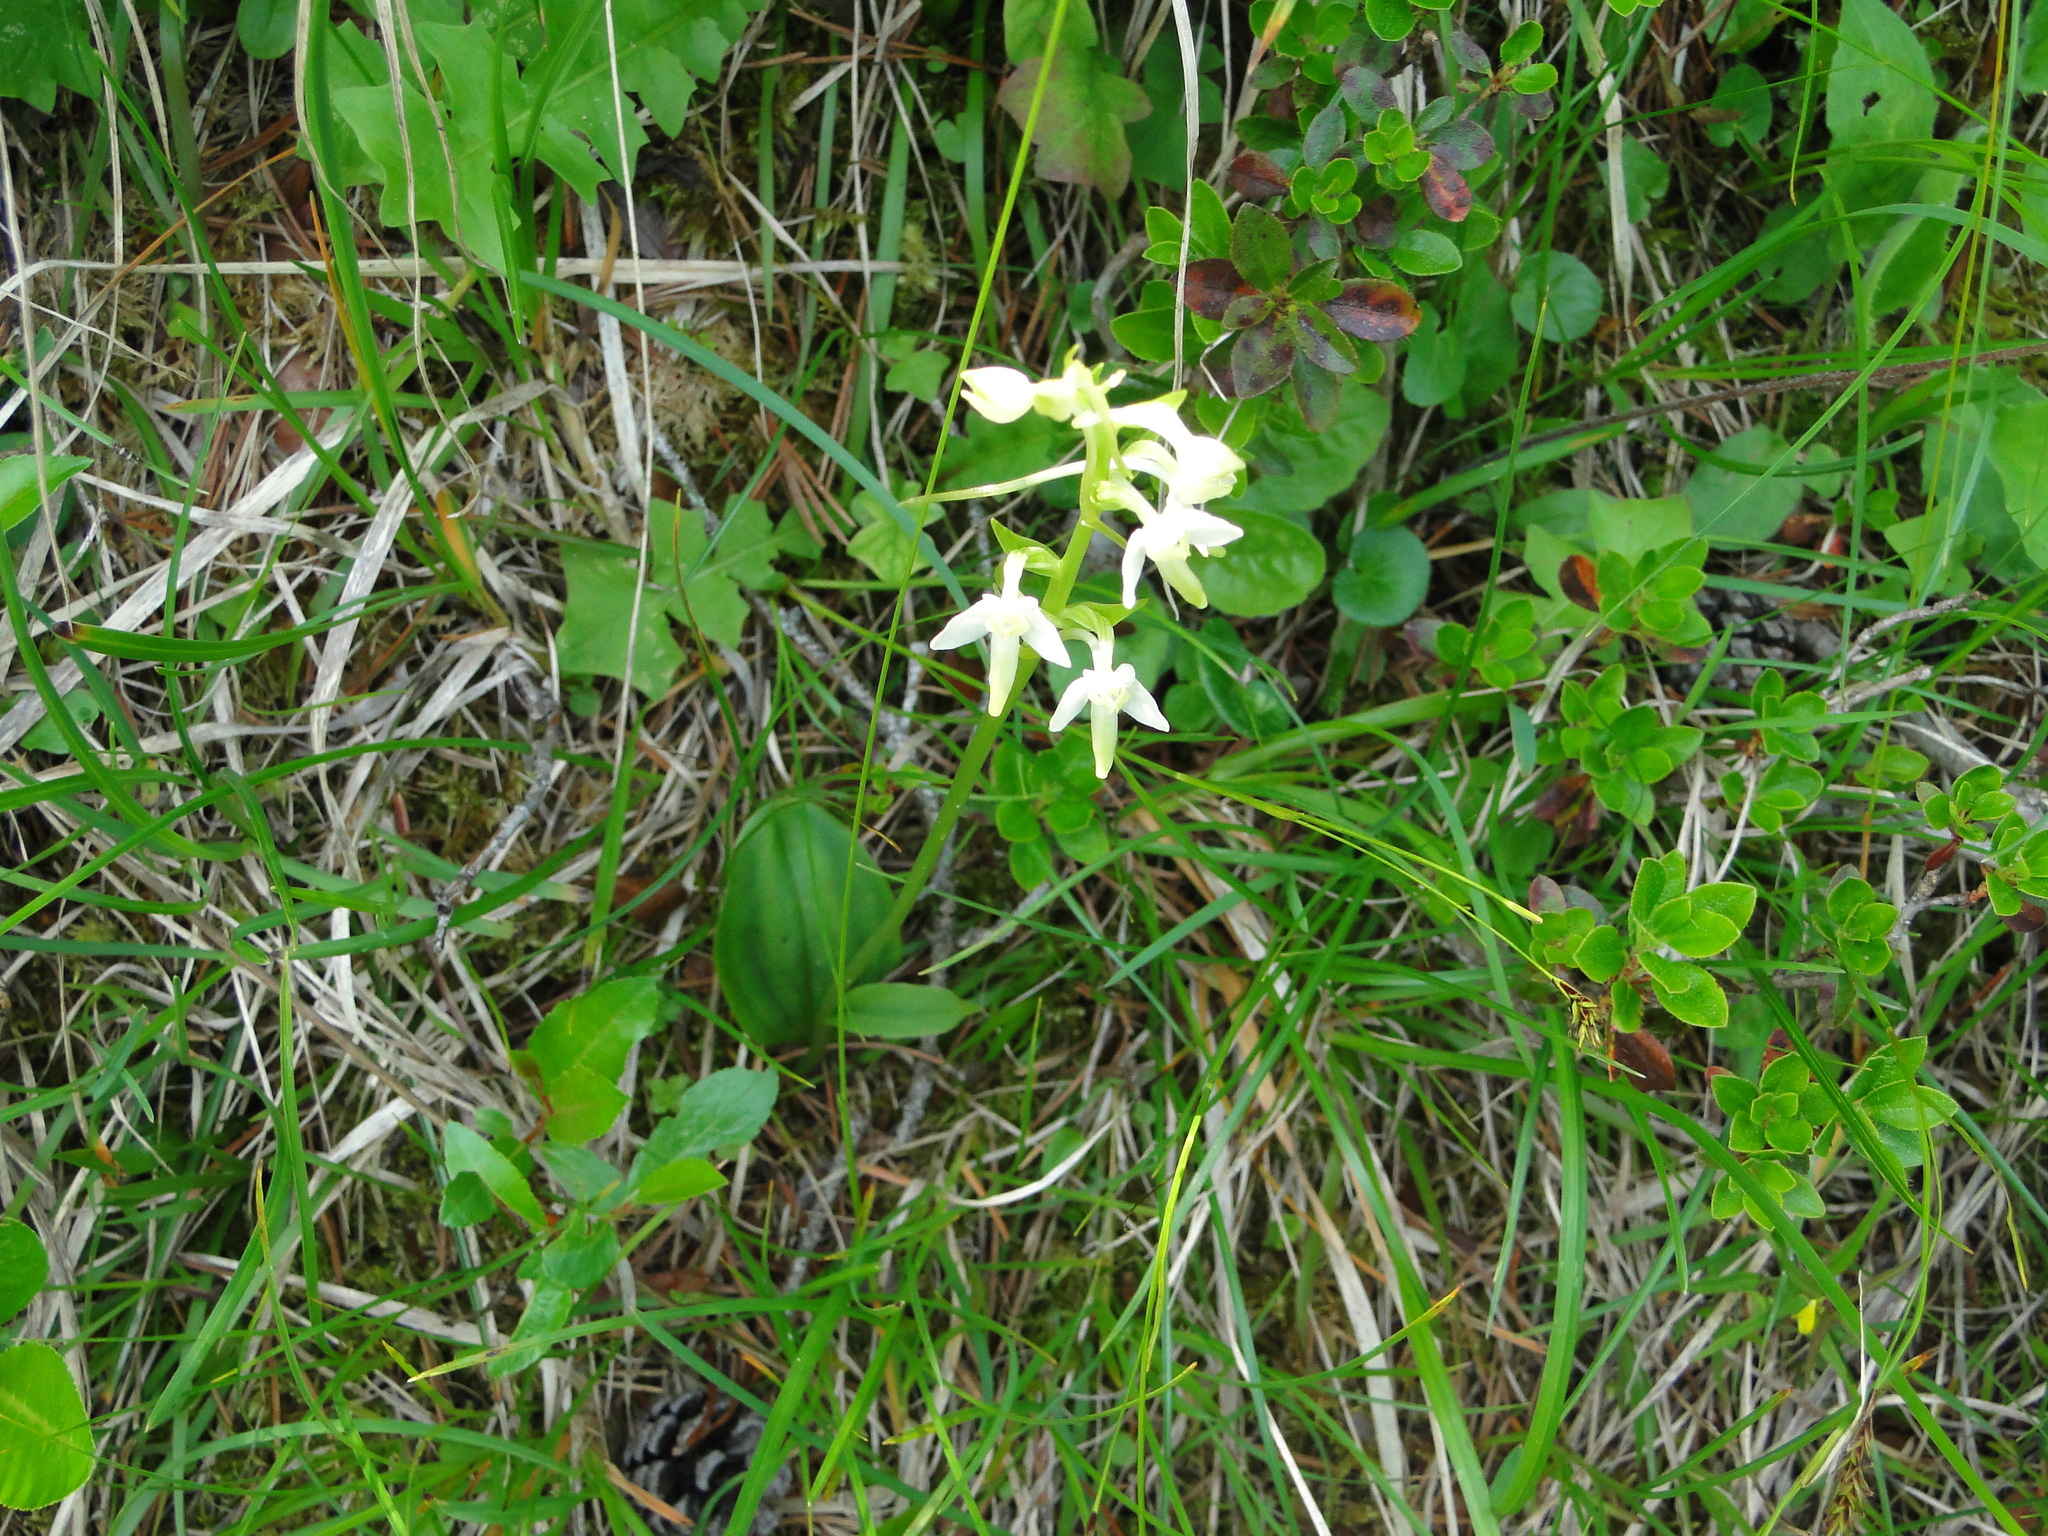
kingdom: Plantae
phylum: Tracheophyta
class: Liliopsida
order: Asparagales
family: Orchidaceae
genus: Platanthera
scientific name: Platanthera bifolia
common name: Lesser butterfly-orchid
